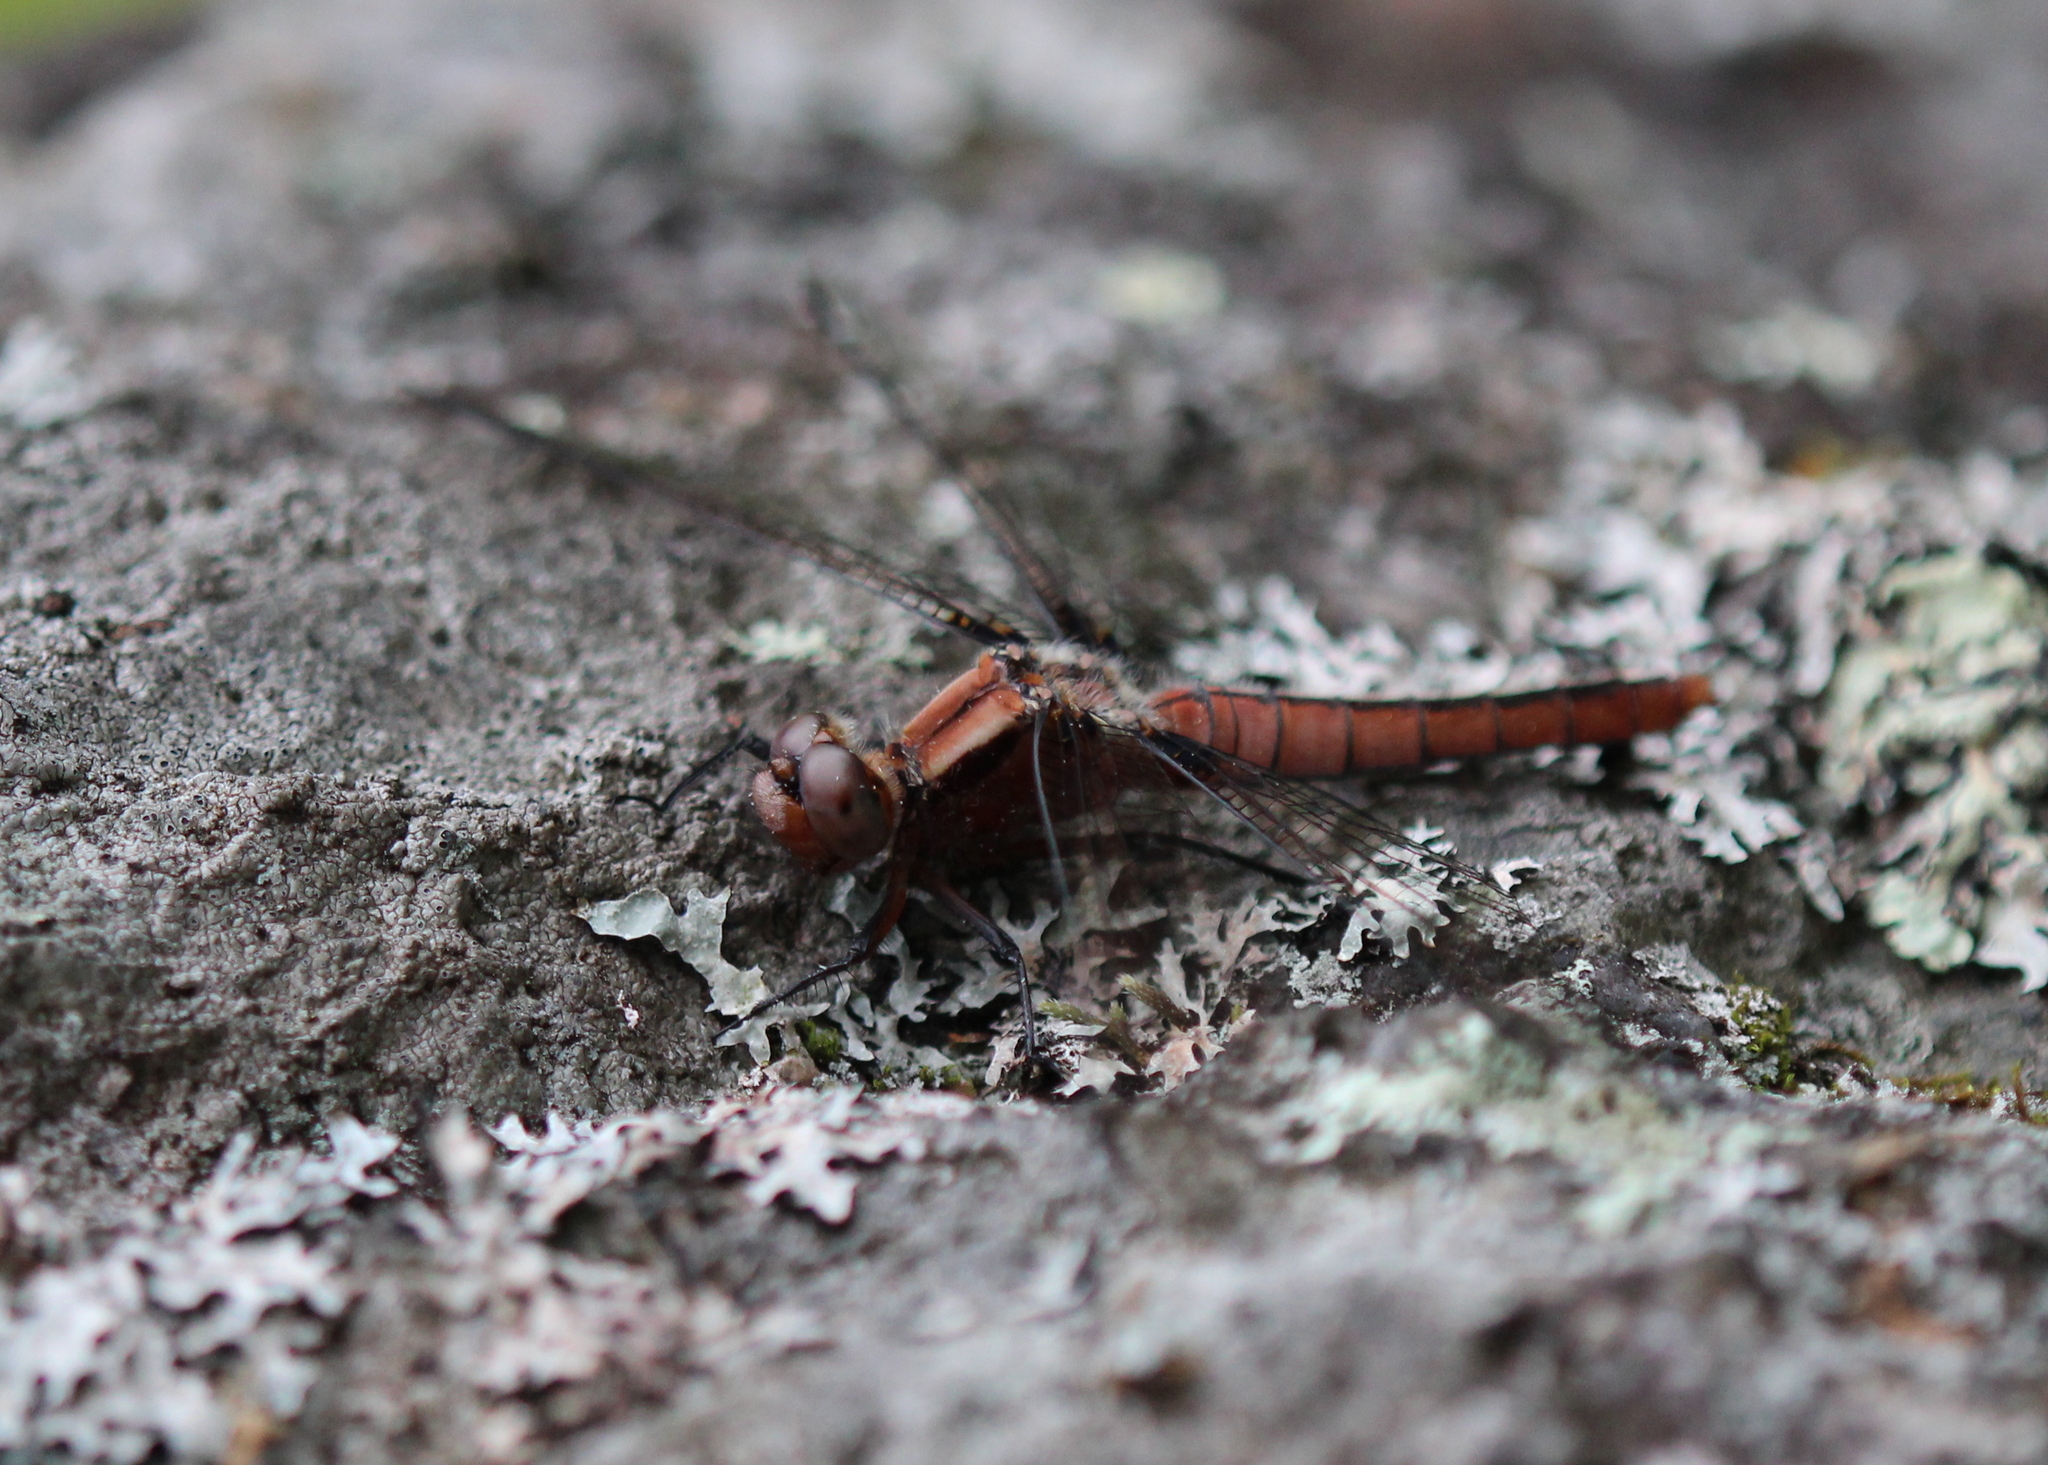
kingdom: Animalia
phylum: Arthropoda
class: Insecta
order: Odonata
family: Libellulidae
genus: Ladona
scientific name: Ladona julia
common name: Chalk-fronted corporal
